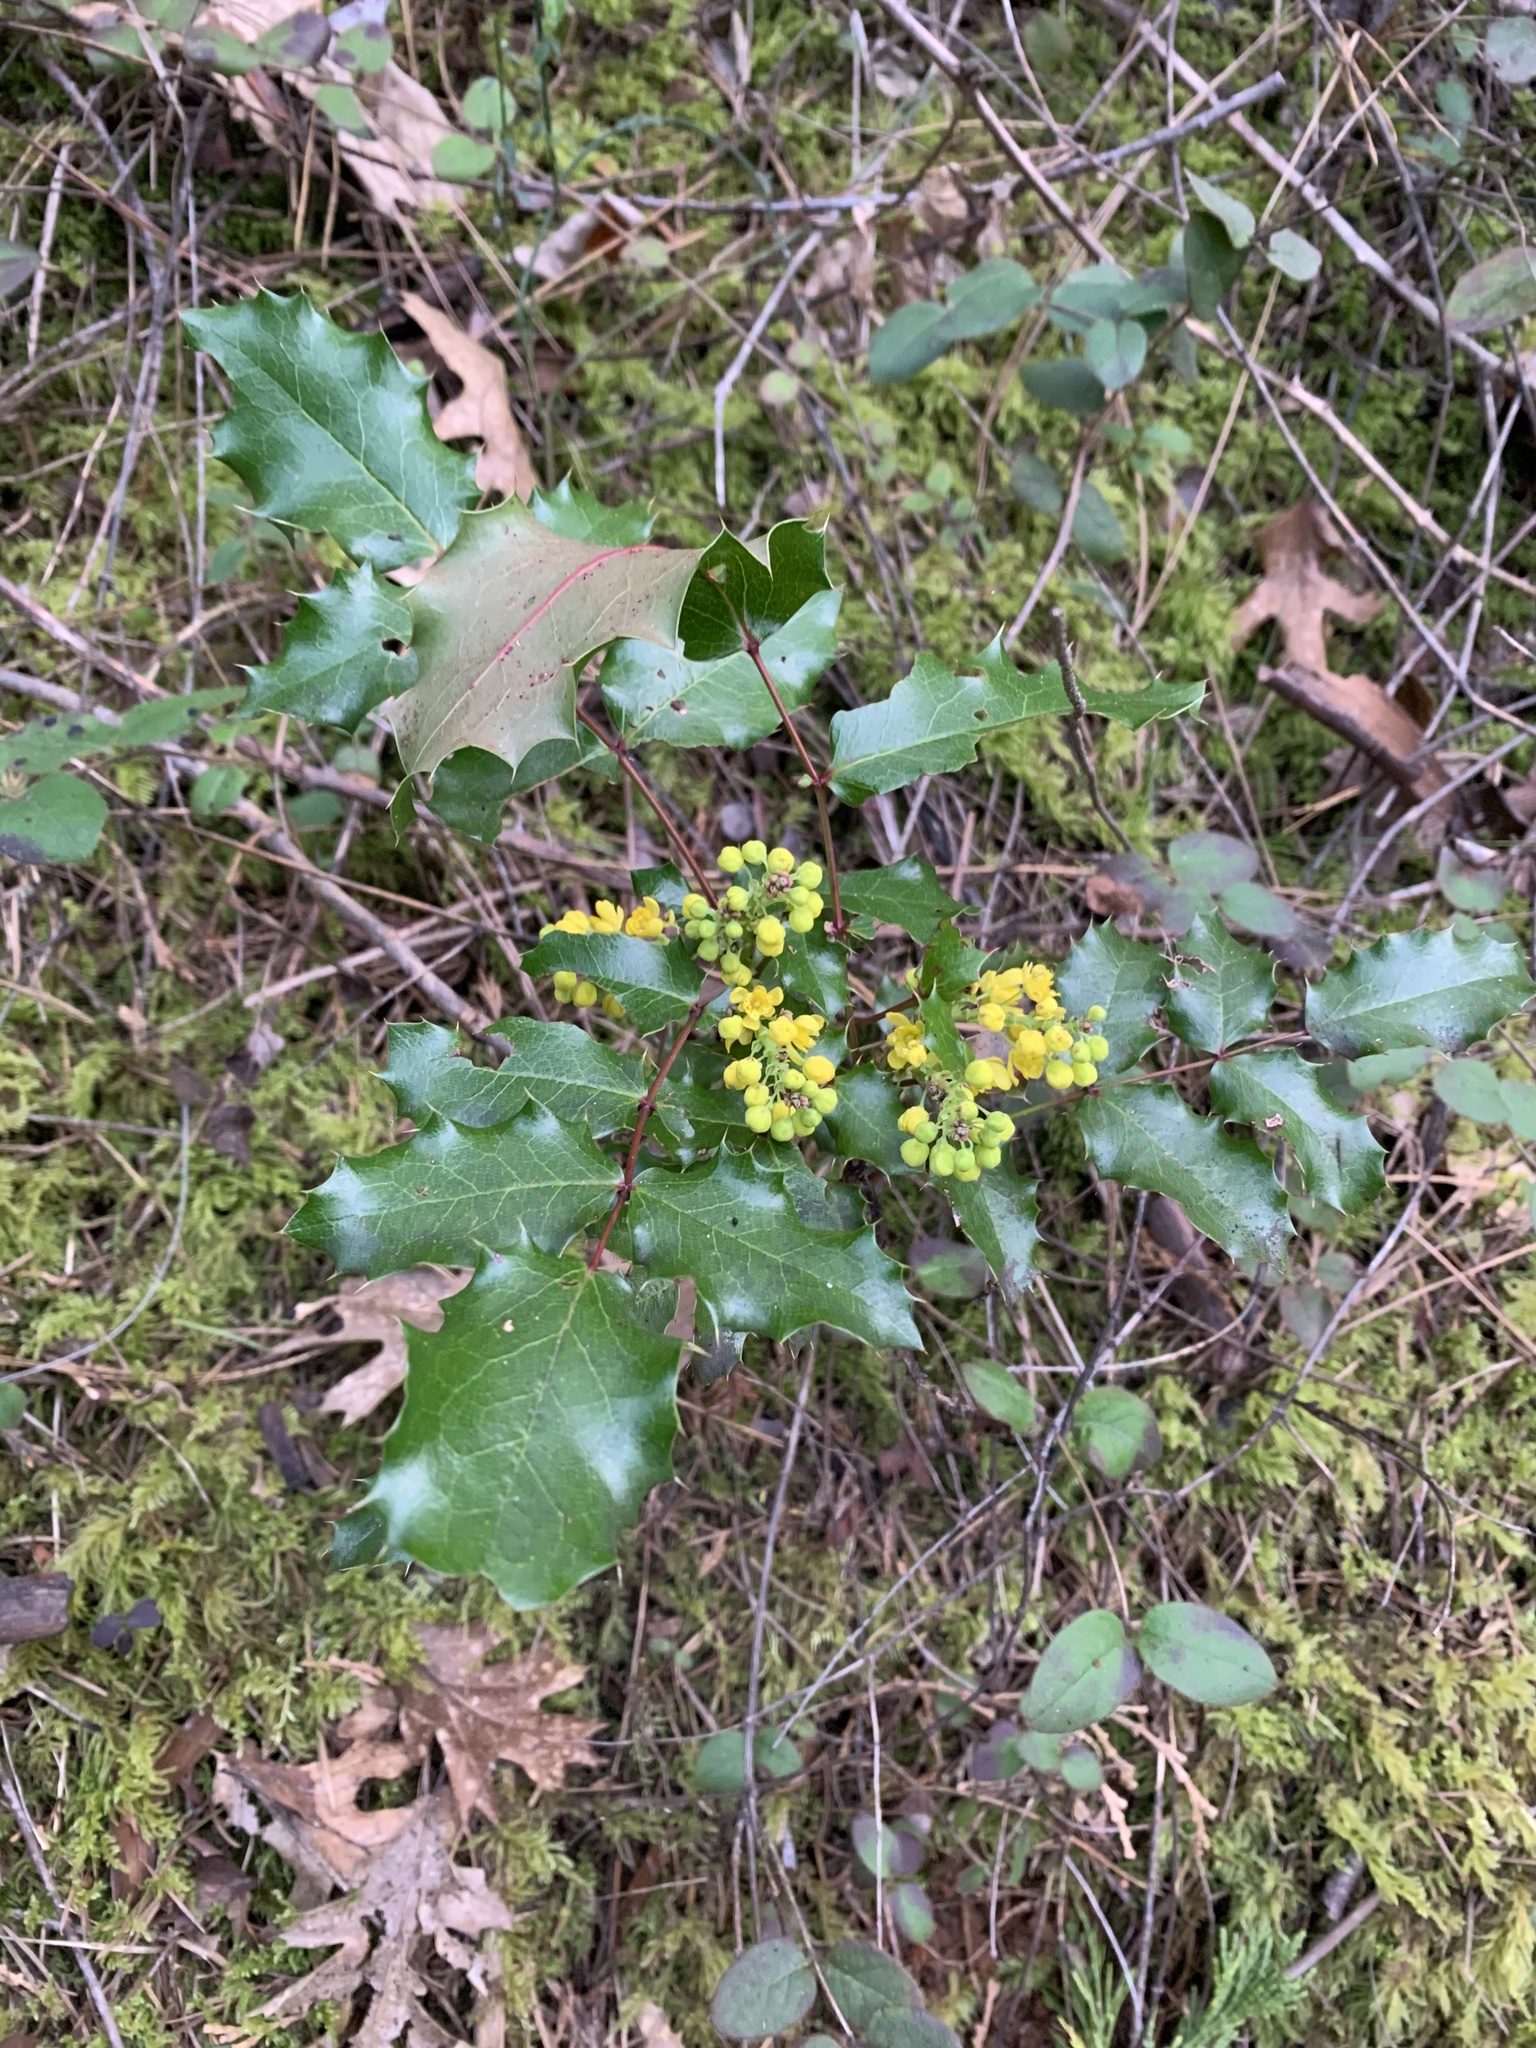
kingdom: Plantae
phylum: Tracheophyta
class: Magnoliopsida
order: Ranunculales
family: Berberidaceae
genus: Mahonia
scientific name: Mahonia aquifolium
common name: Oregon-grape
